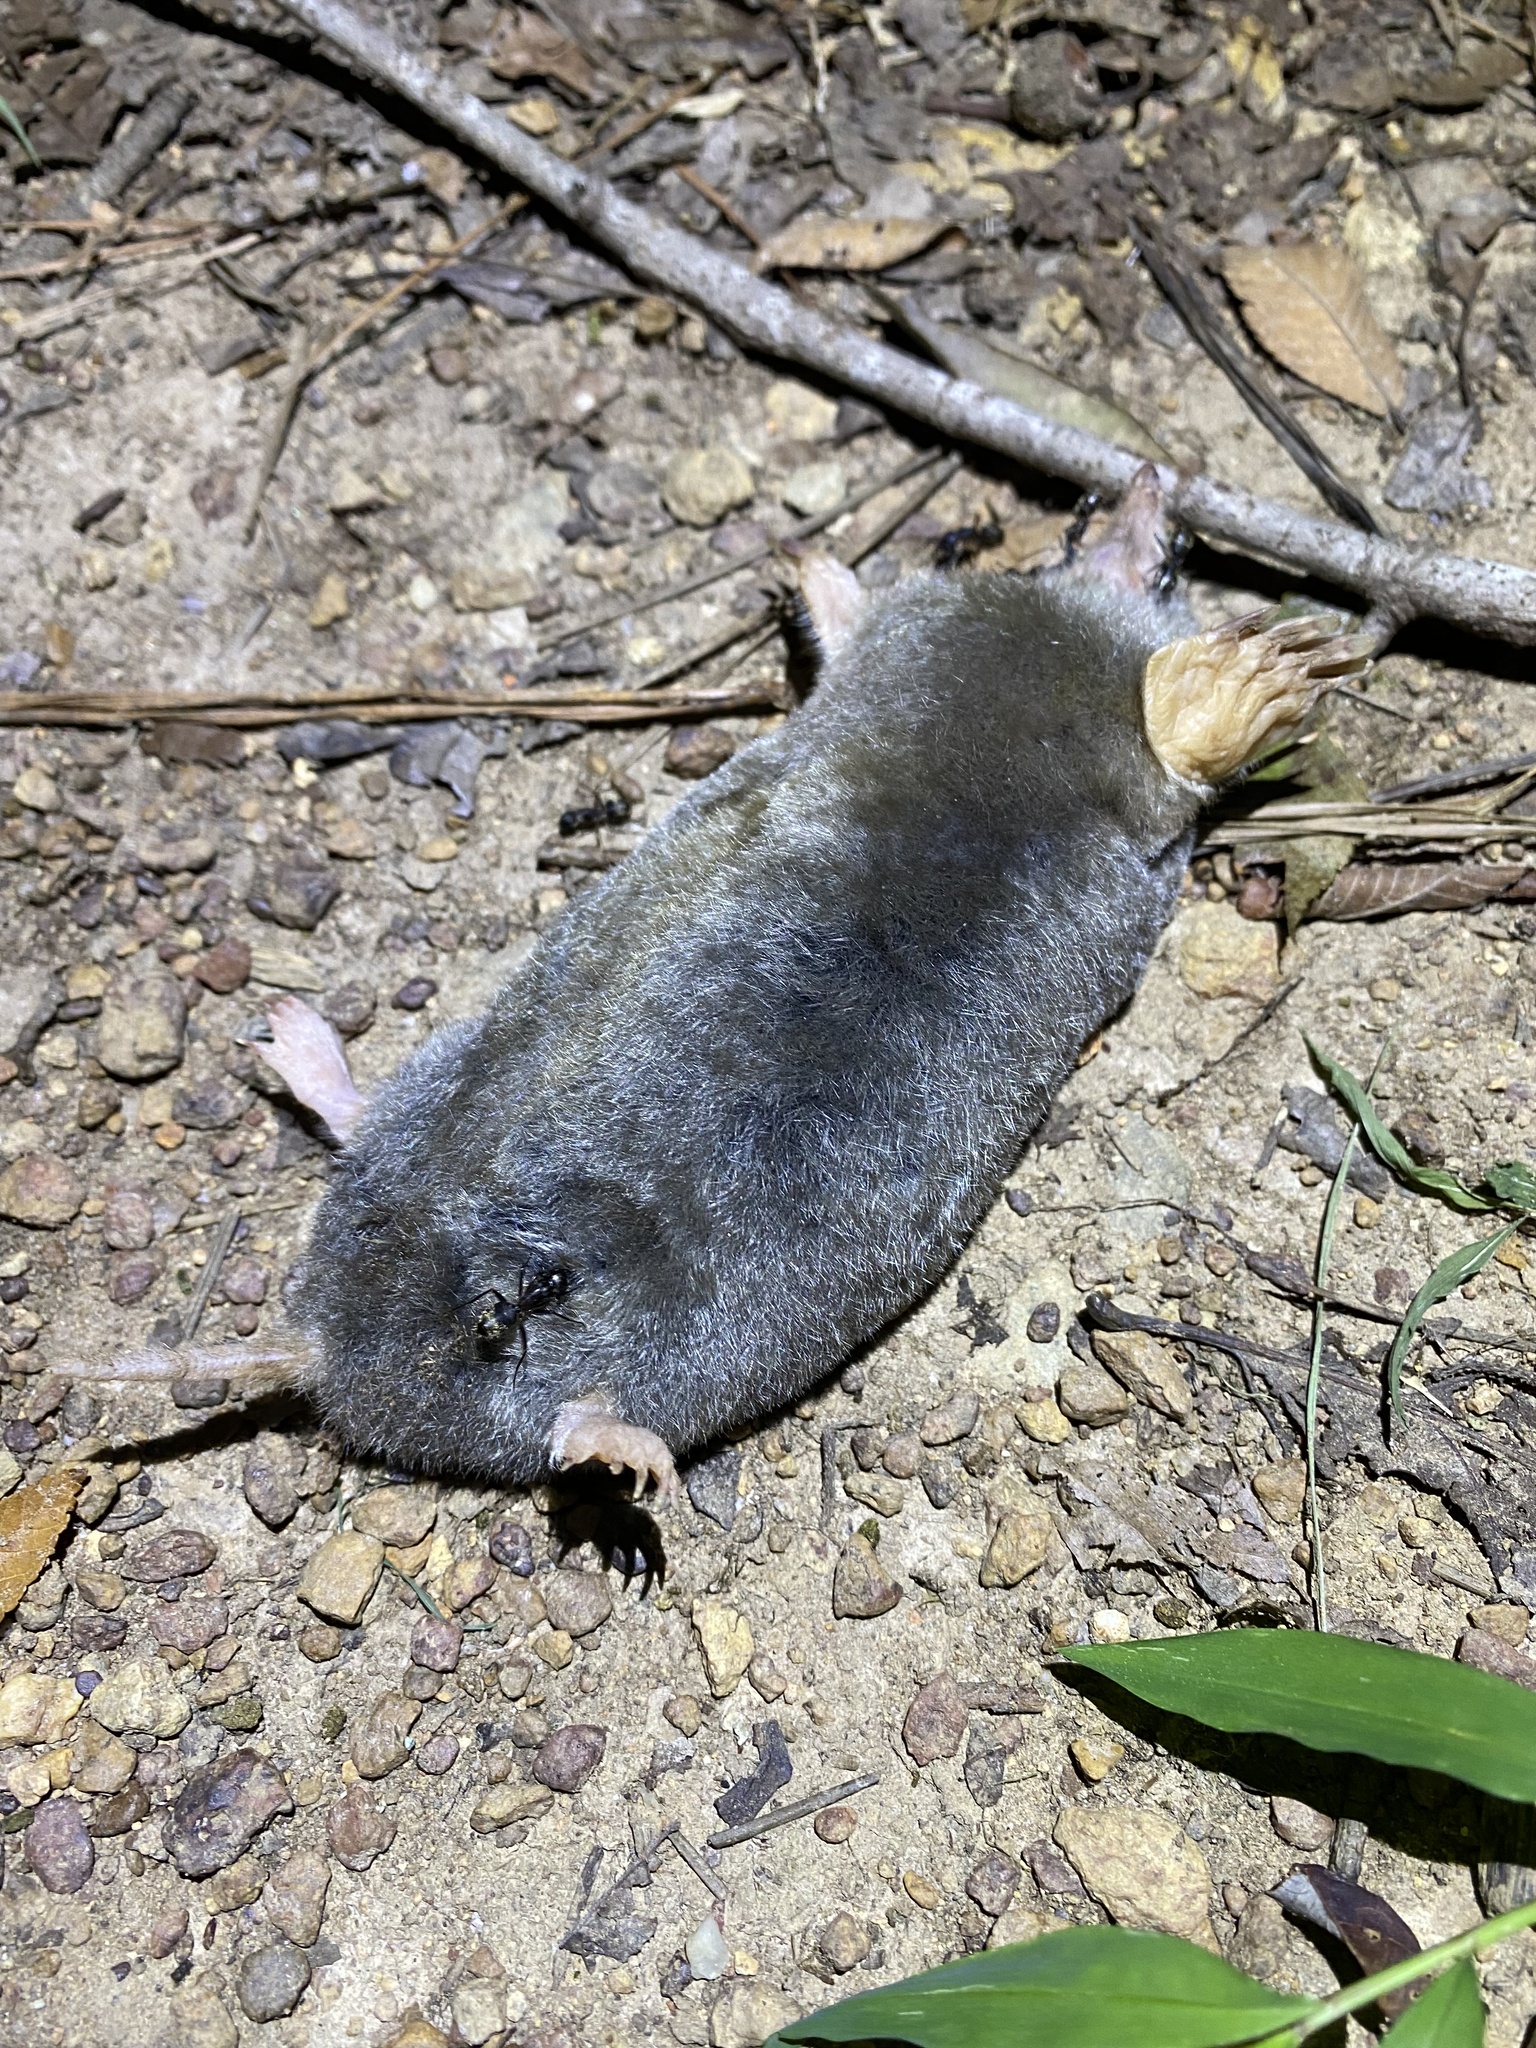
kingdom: Animalia
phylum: Chordata
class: Mammalia
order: Soricomorpha
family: Talpidae
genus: Scalopus
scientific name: Scalopus aquaticus
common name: Eastern mole
